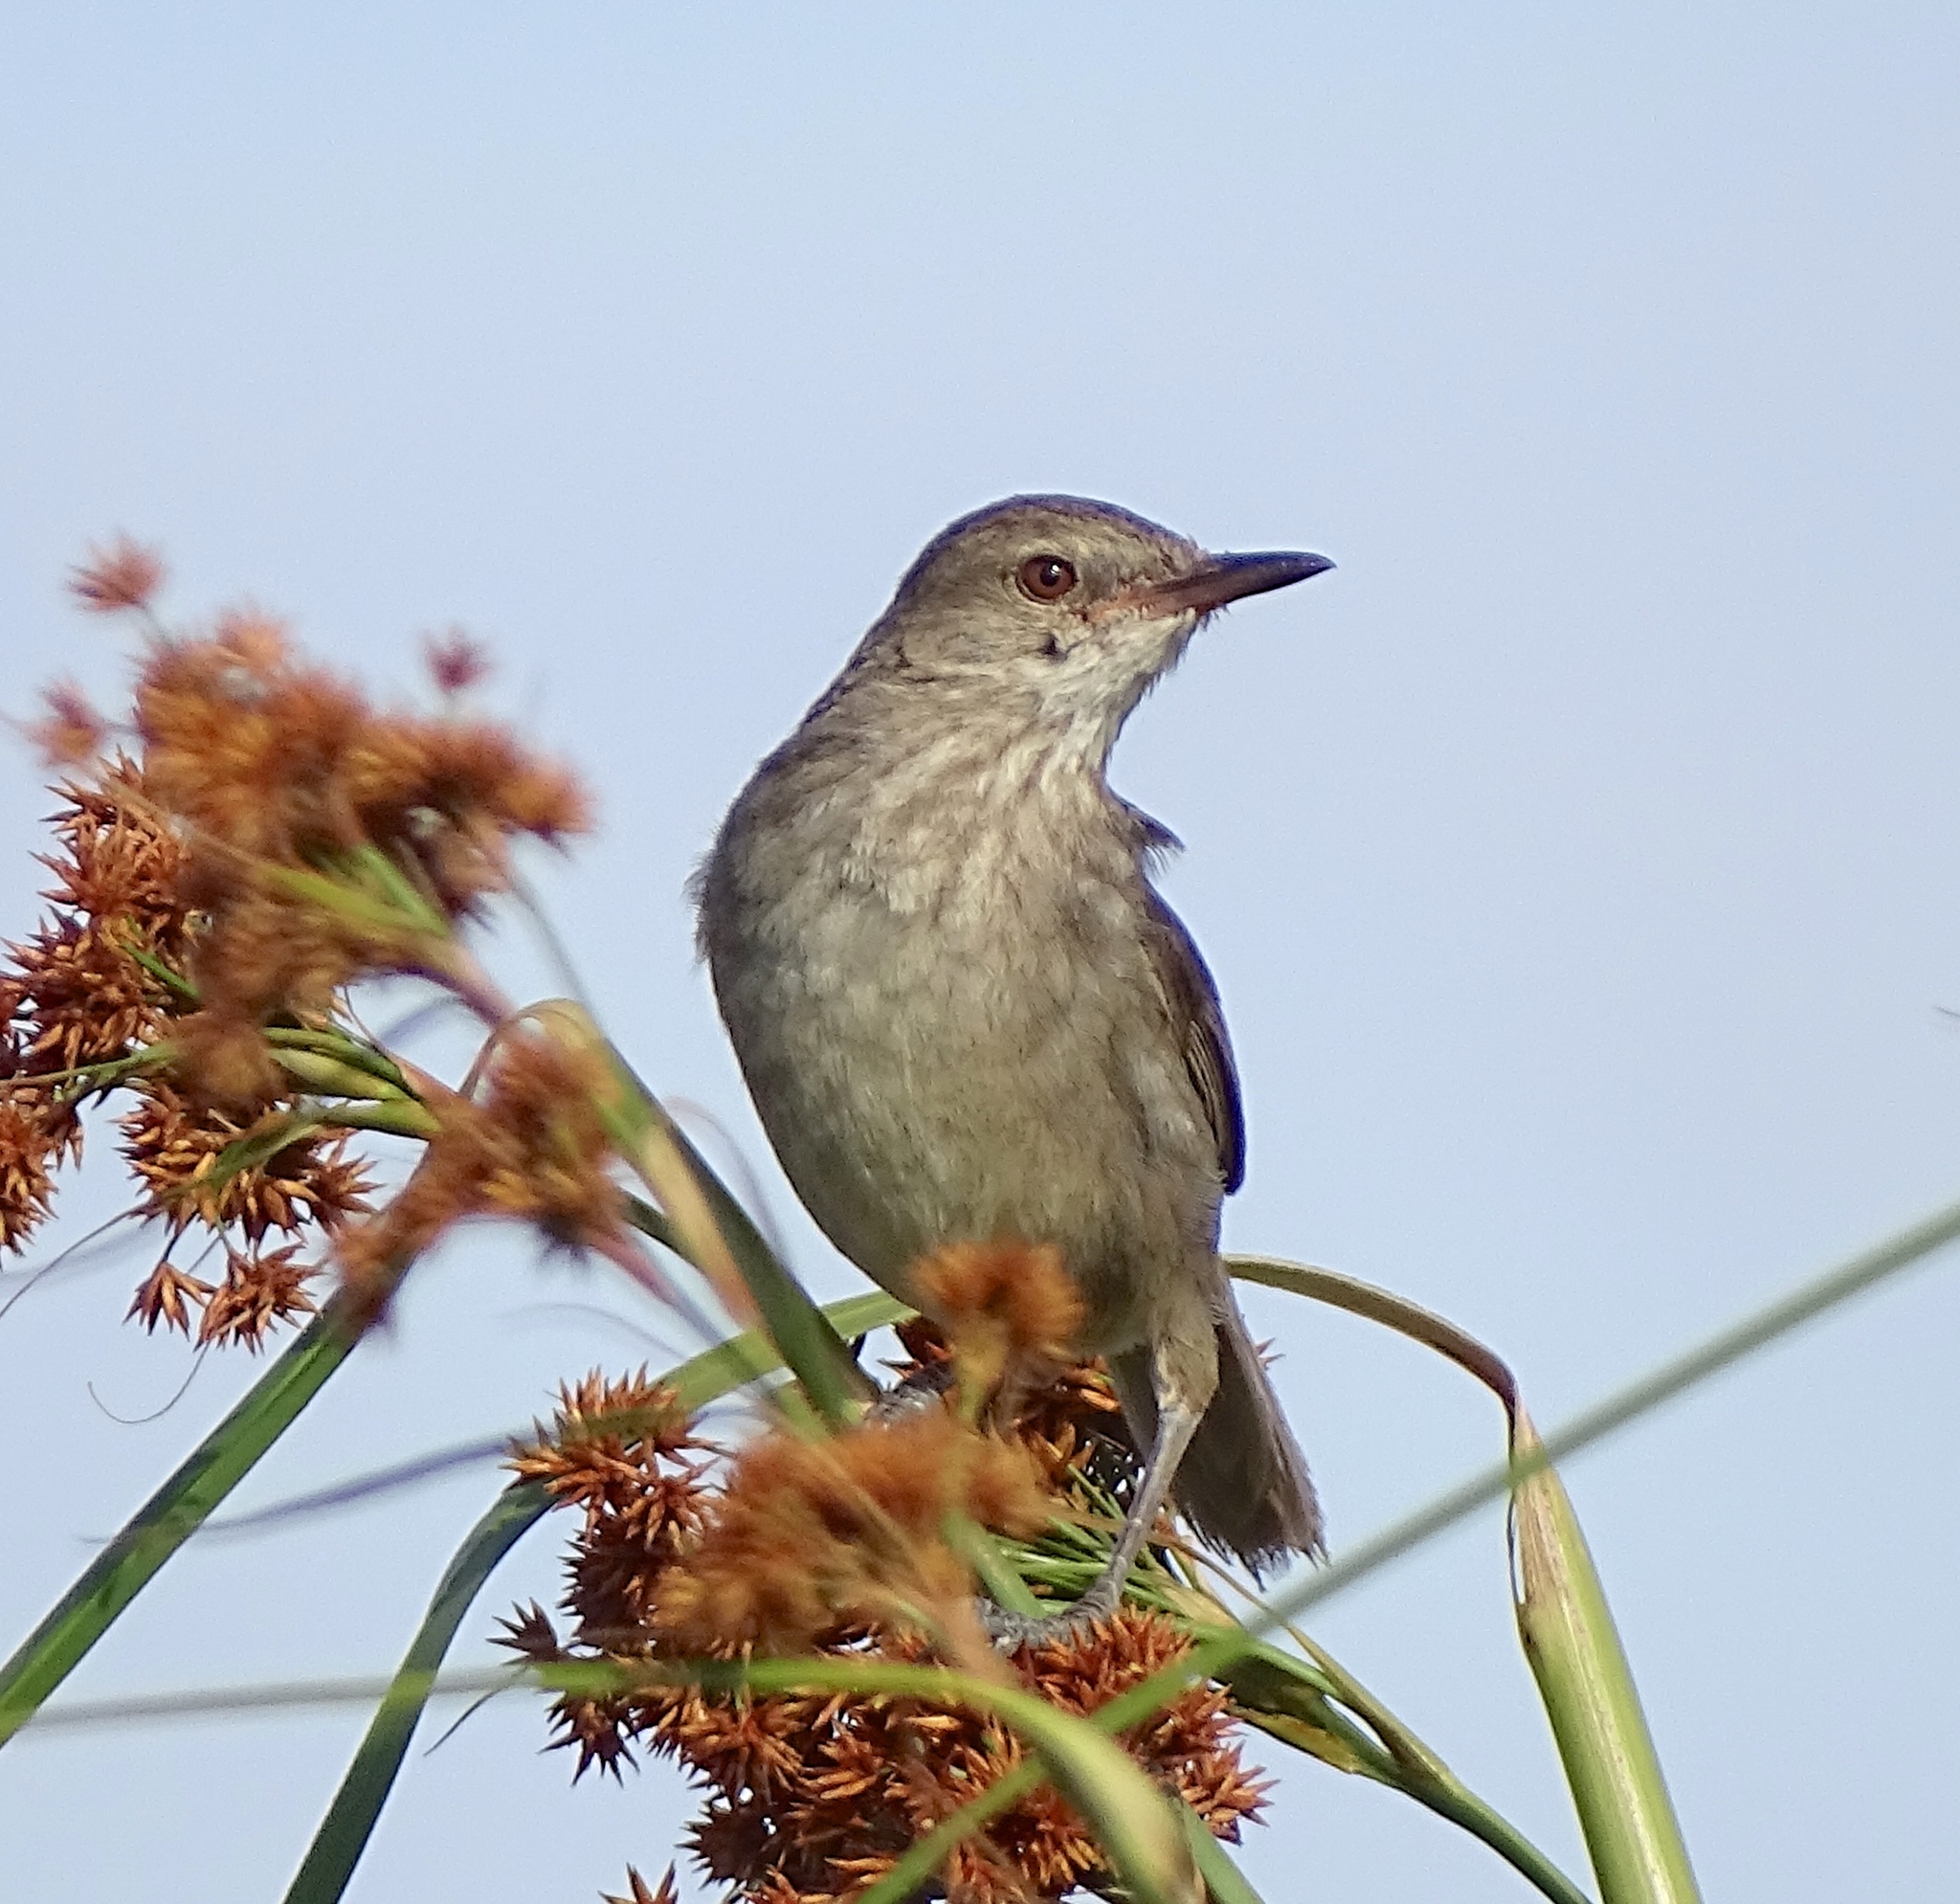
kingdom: Animalia
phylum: Chordata
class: Aves
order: Passeriformes
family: Acrocephalidae
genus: Acrocephalus
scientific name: Acrocephalus newtoni
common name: Madagascar swamp warbler
